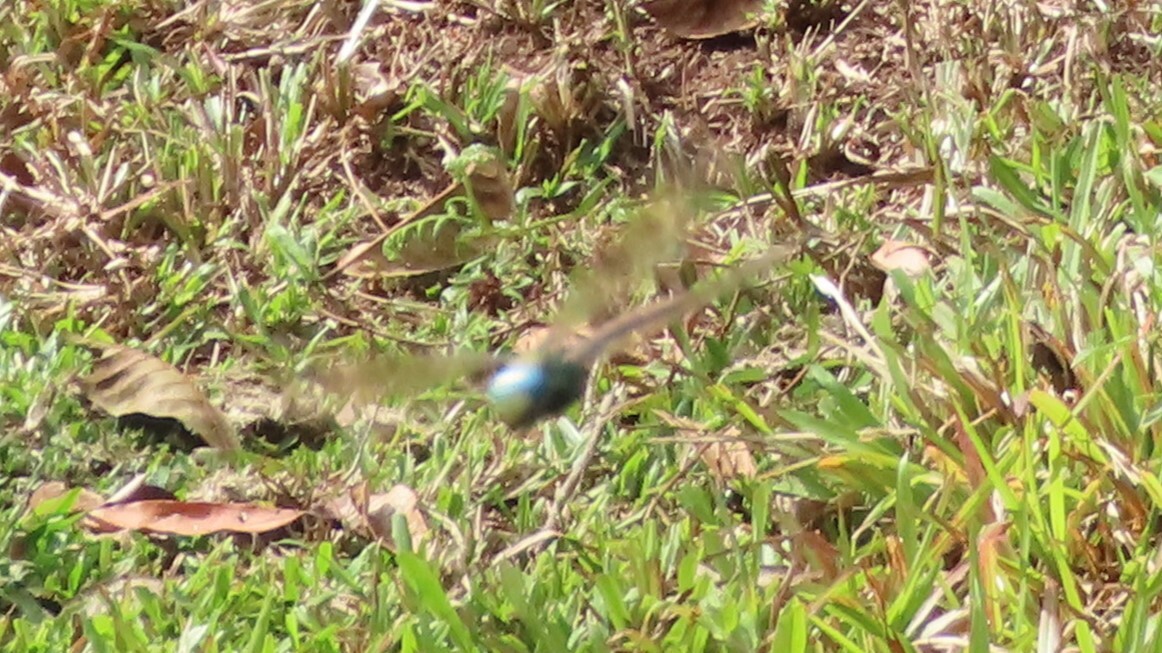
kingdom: Animalia
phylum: Arthropoda
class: Insecta
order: Odonata
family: Aeshnidae
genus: Anax
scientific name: Anax immaculifrons
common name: Magnificent emperor
